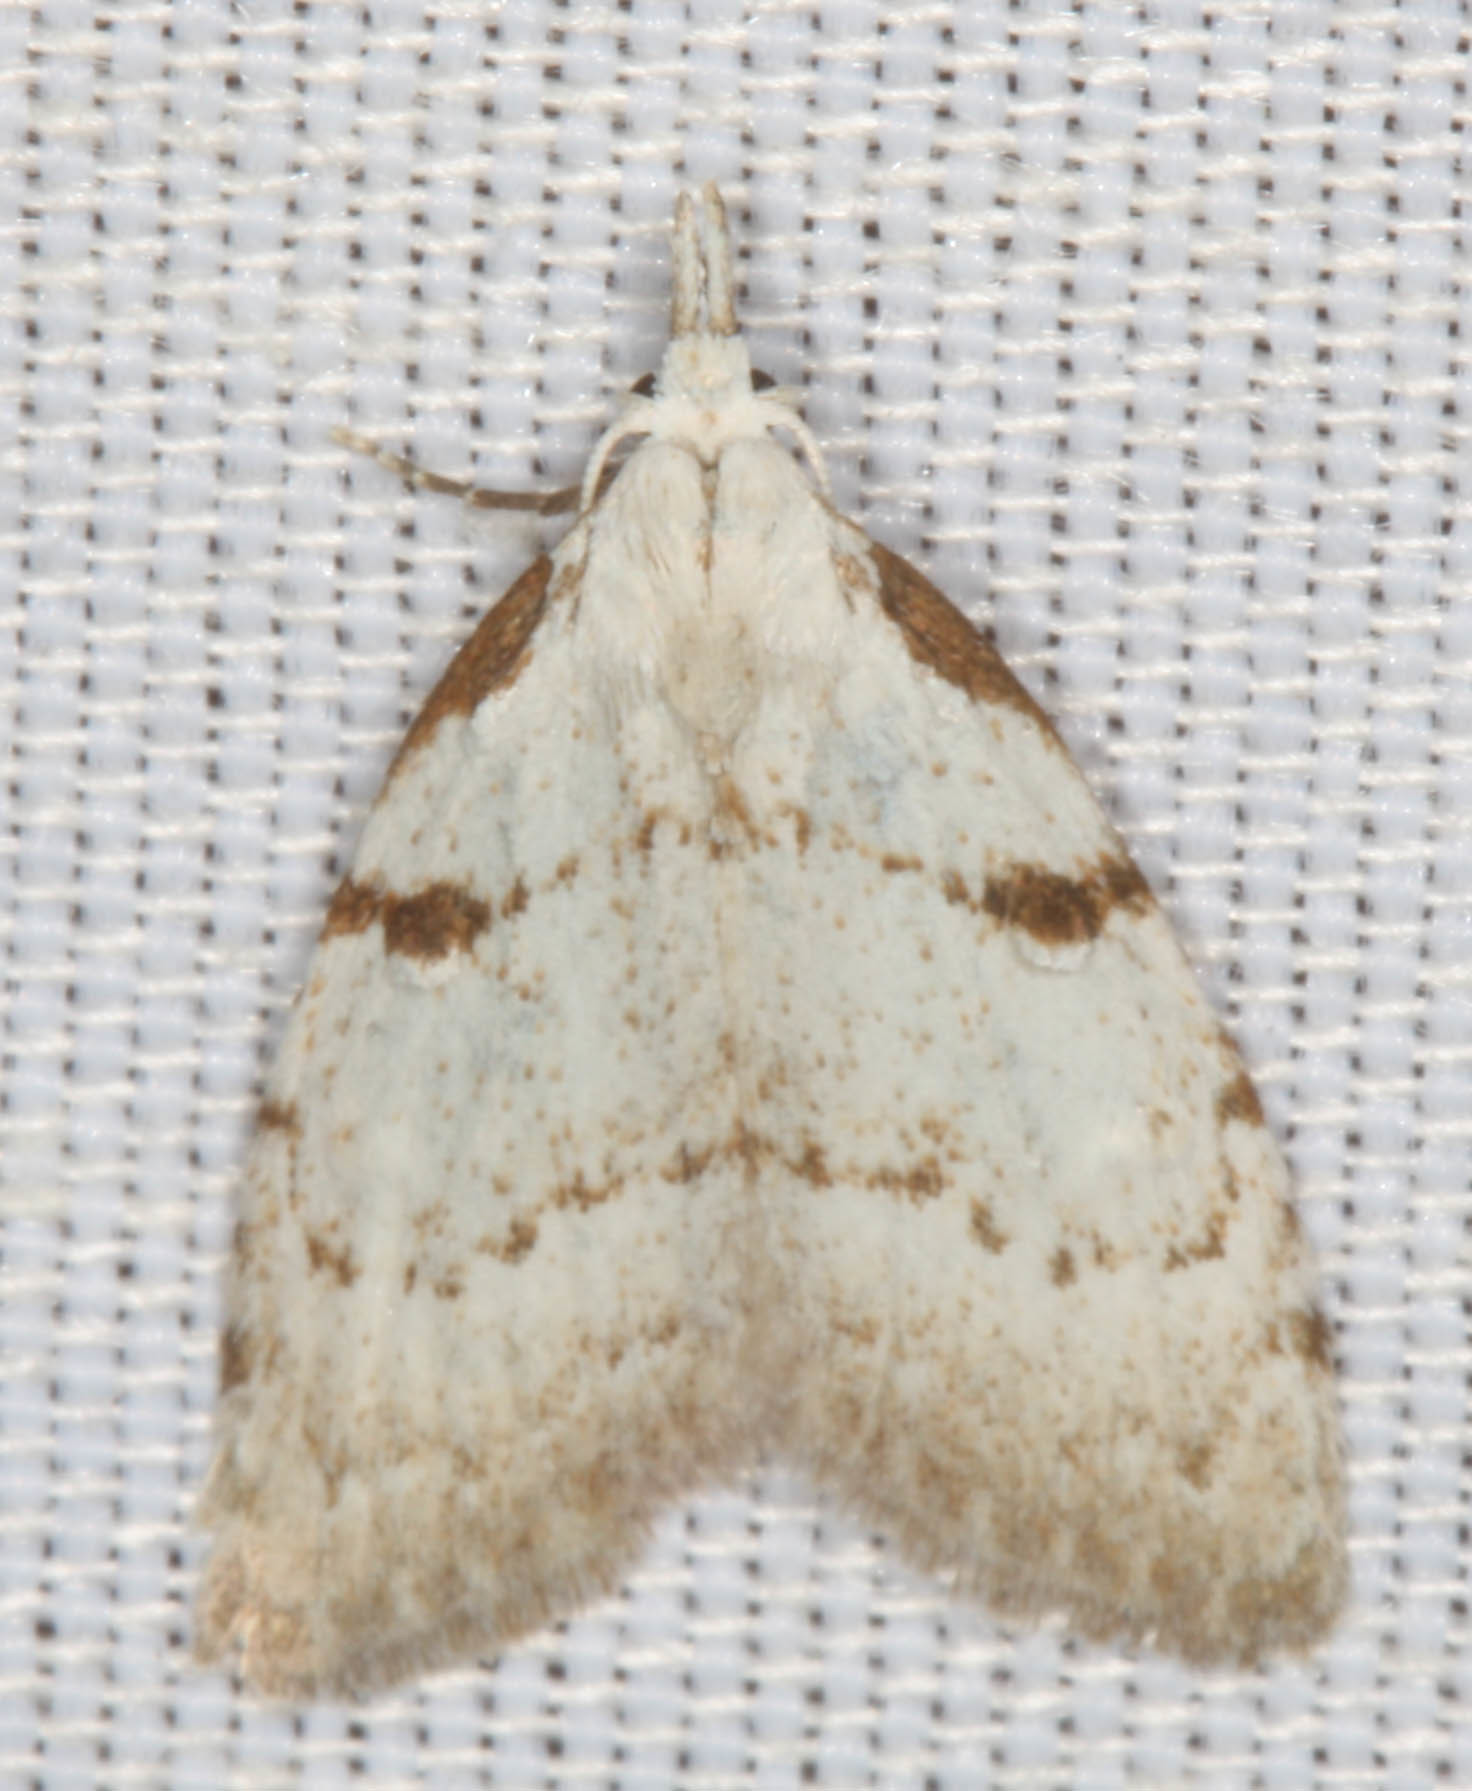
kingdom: Animalia
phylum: Arthropoda
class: Insecta
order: Lepidoptera
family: Nolidae
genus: Nola
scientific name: Nola minna
